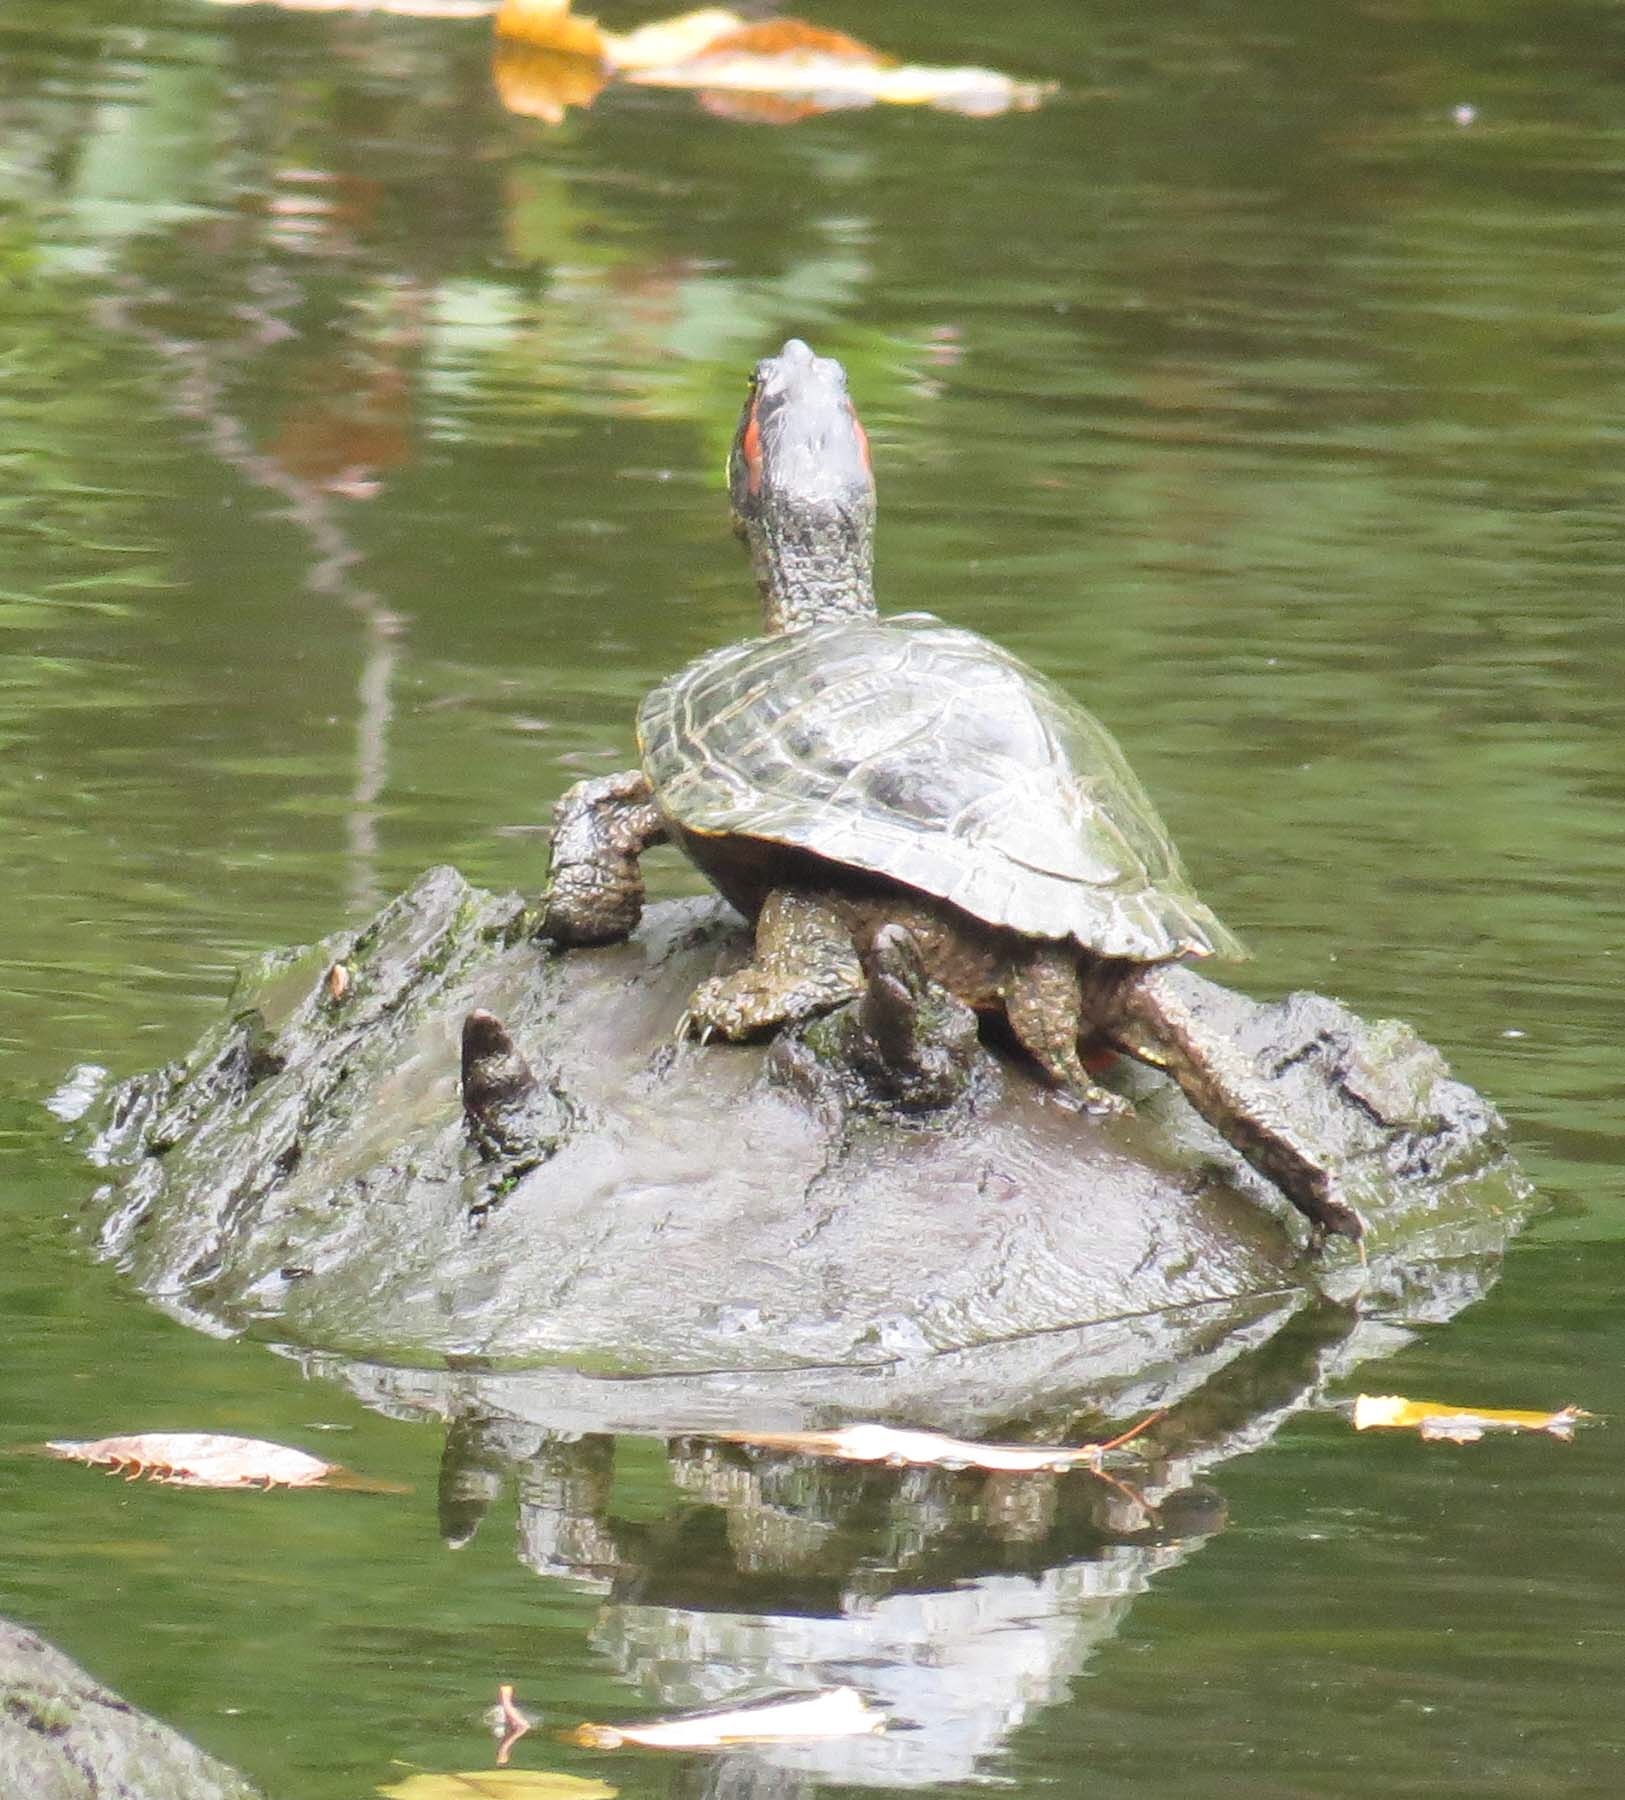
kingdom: Animalia
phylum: Chordata
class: Testudines
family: Emydidae
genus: Trachemys
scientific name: Trachemys scripta
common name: Slider
